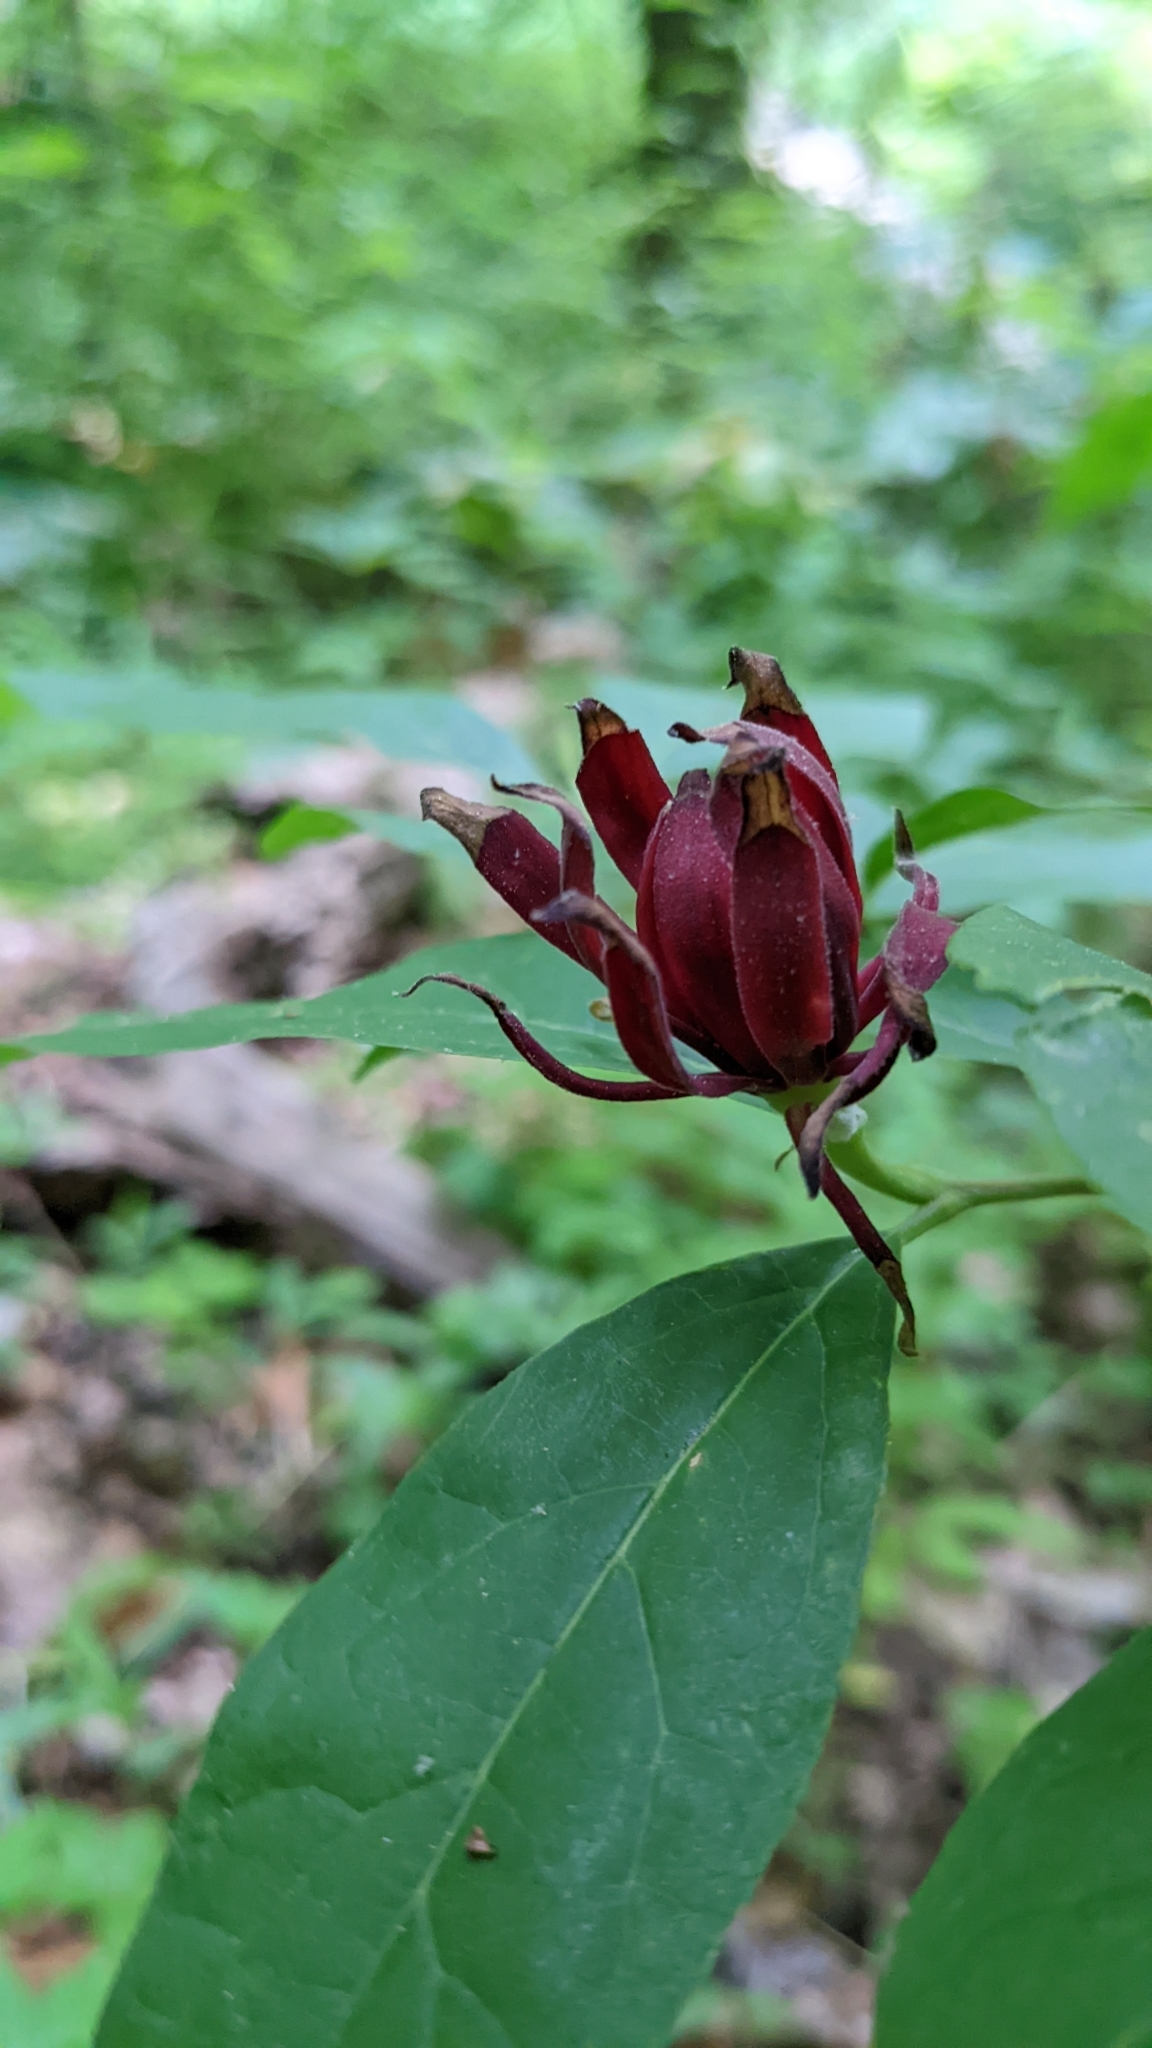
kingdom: Plantae
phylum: Tracheophyta
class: Magnoliopsida
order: Laurales
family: Calycanthaceae
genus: Calycanthus
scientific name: Calycanthus floridus
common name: Carolina-allspice
